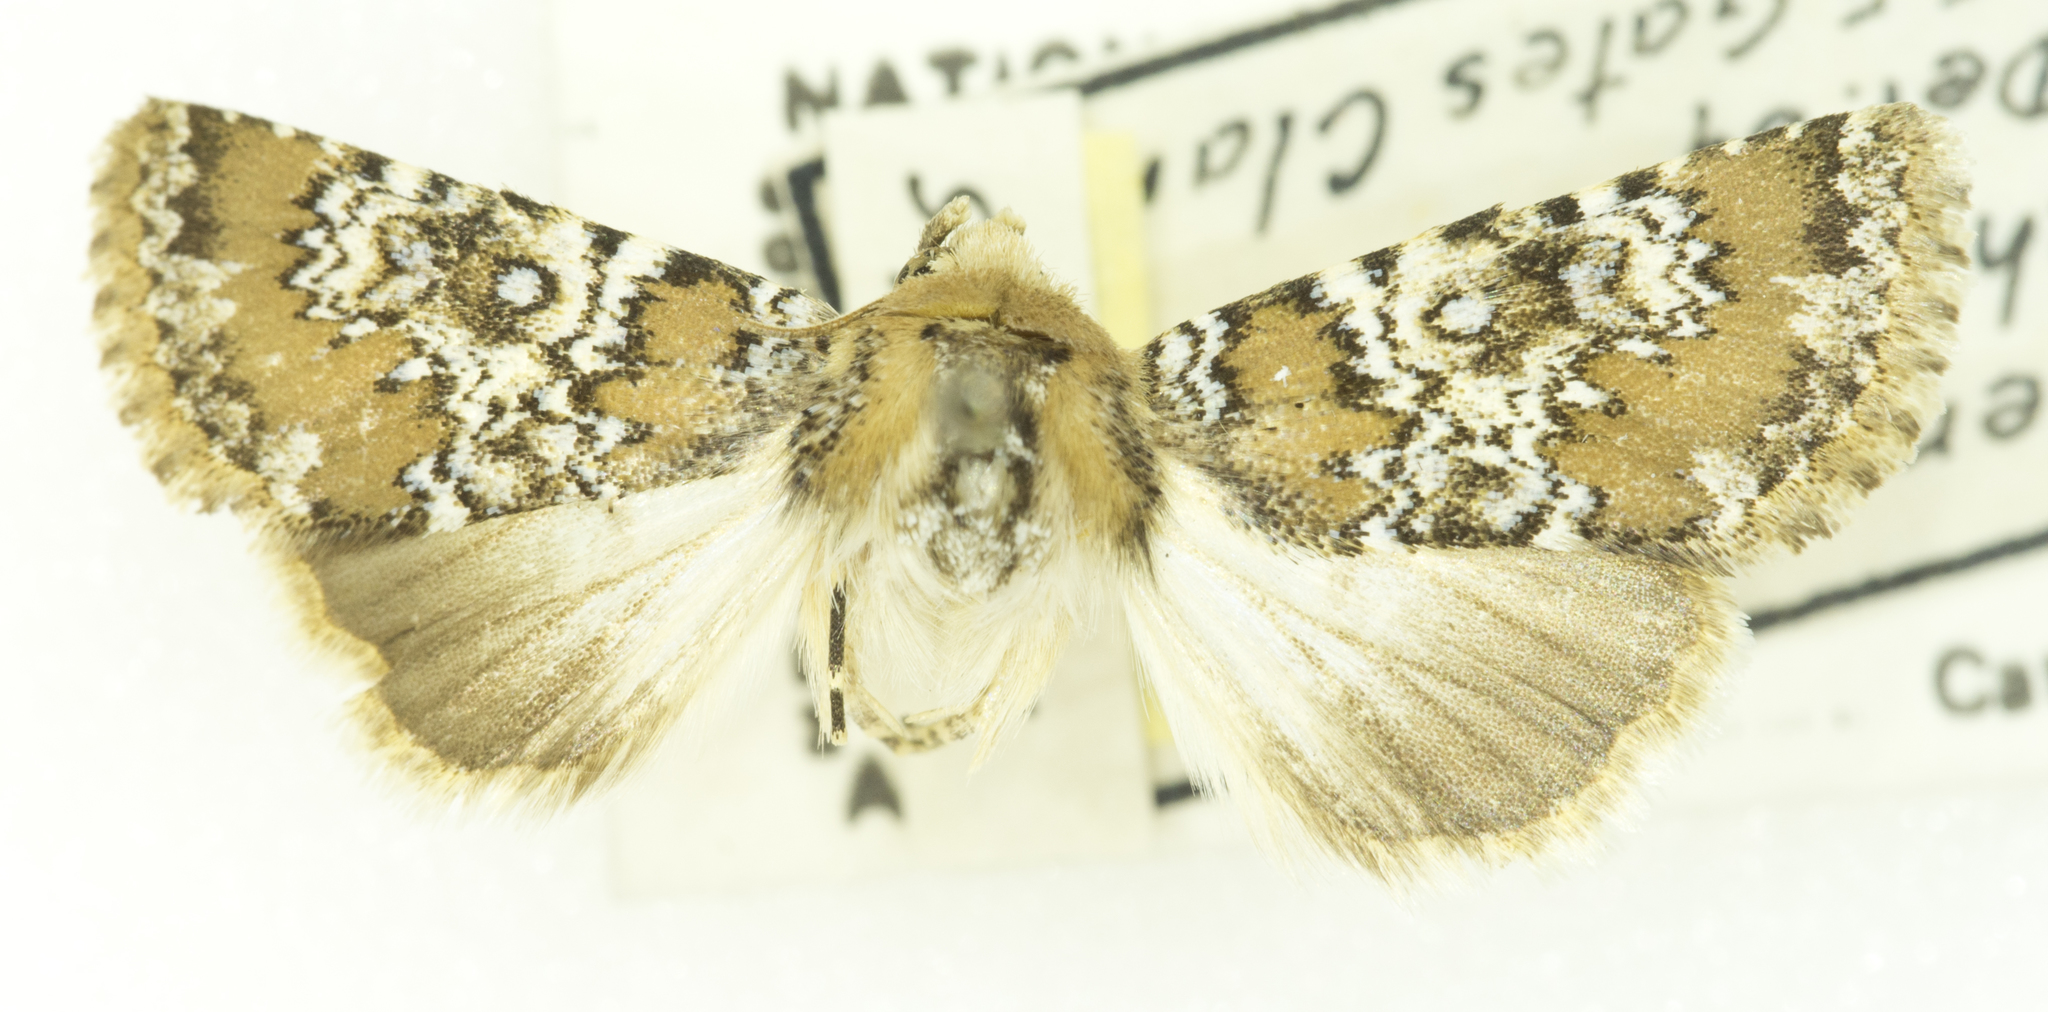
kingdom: Animalia
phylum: Arthropoda
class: Insecta
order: Lepidoptera
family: Noctuidae
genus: Hemibryomima
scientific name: Hemibryomima chryselectra
